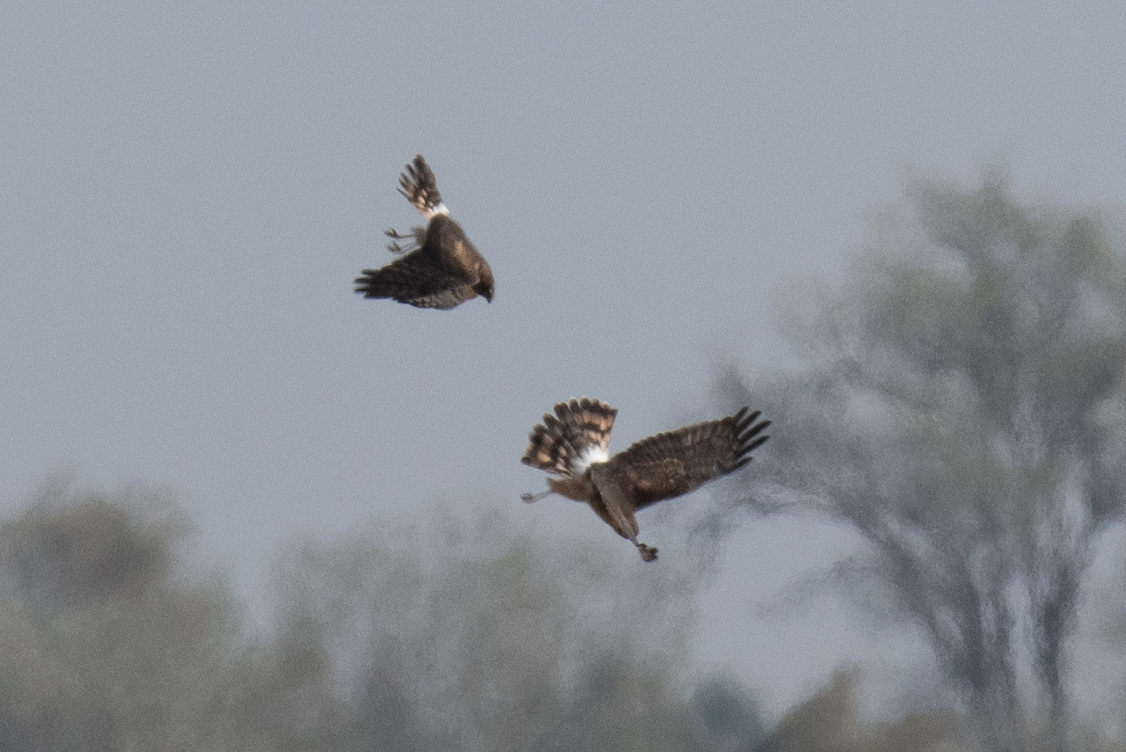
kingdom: Animalia
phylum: Chordata
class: Aves
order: Accipitriformes
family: Accipitridae
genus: Circus
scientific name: Circus cyaneus
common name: Hen harrier
